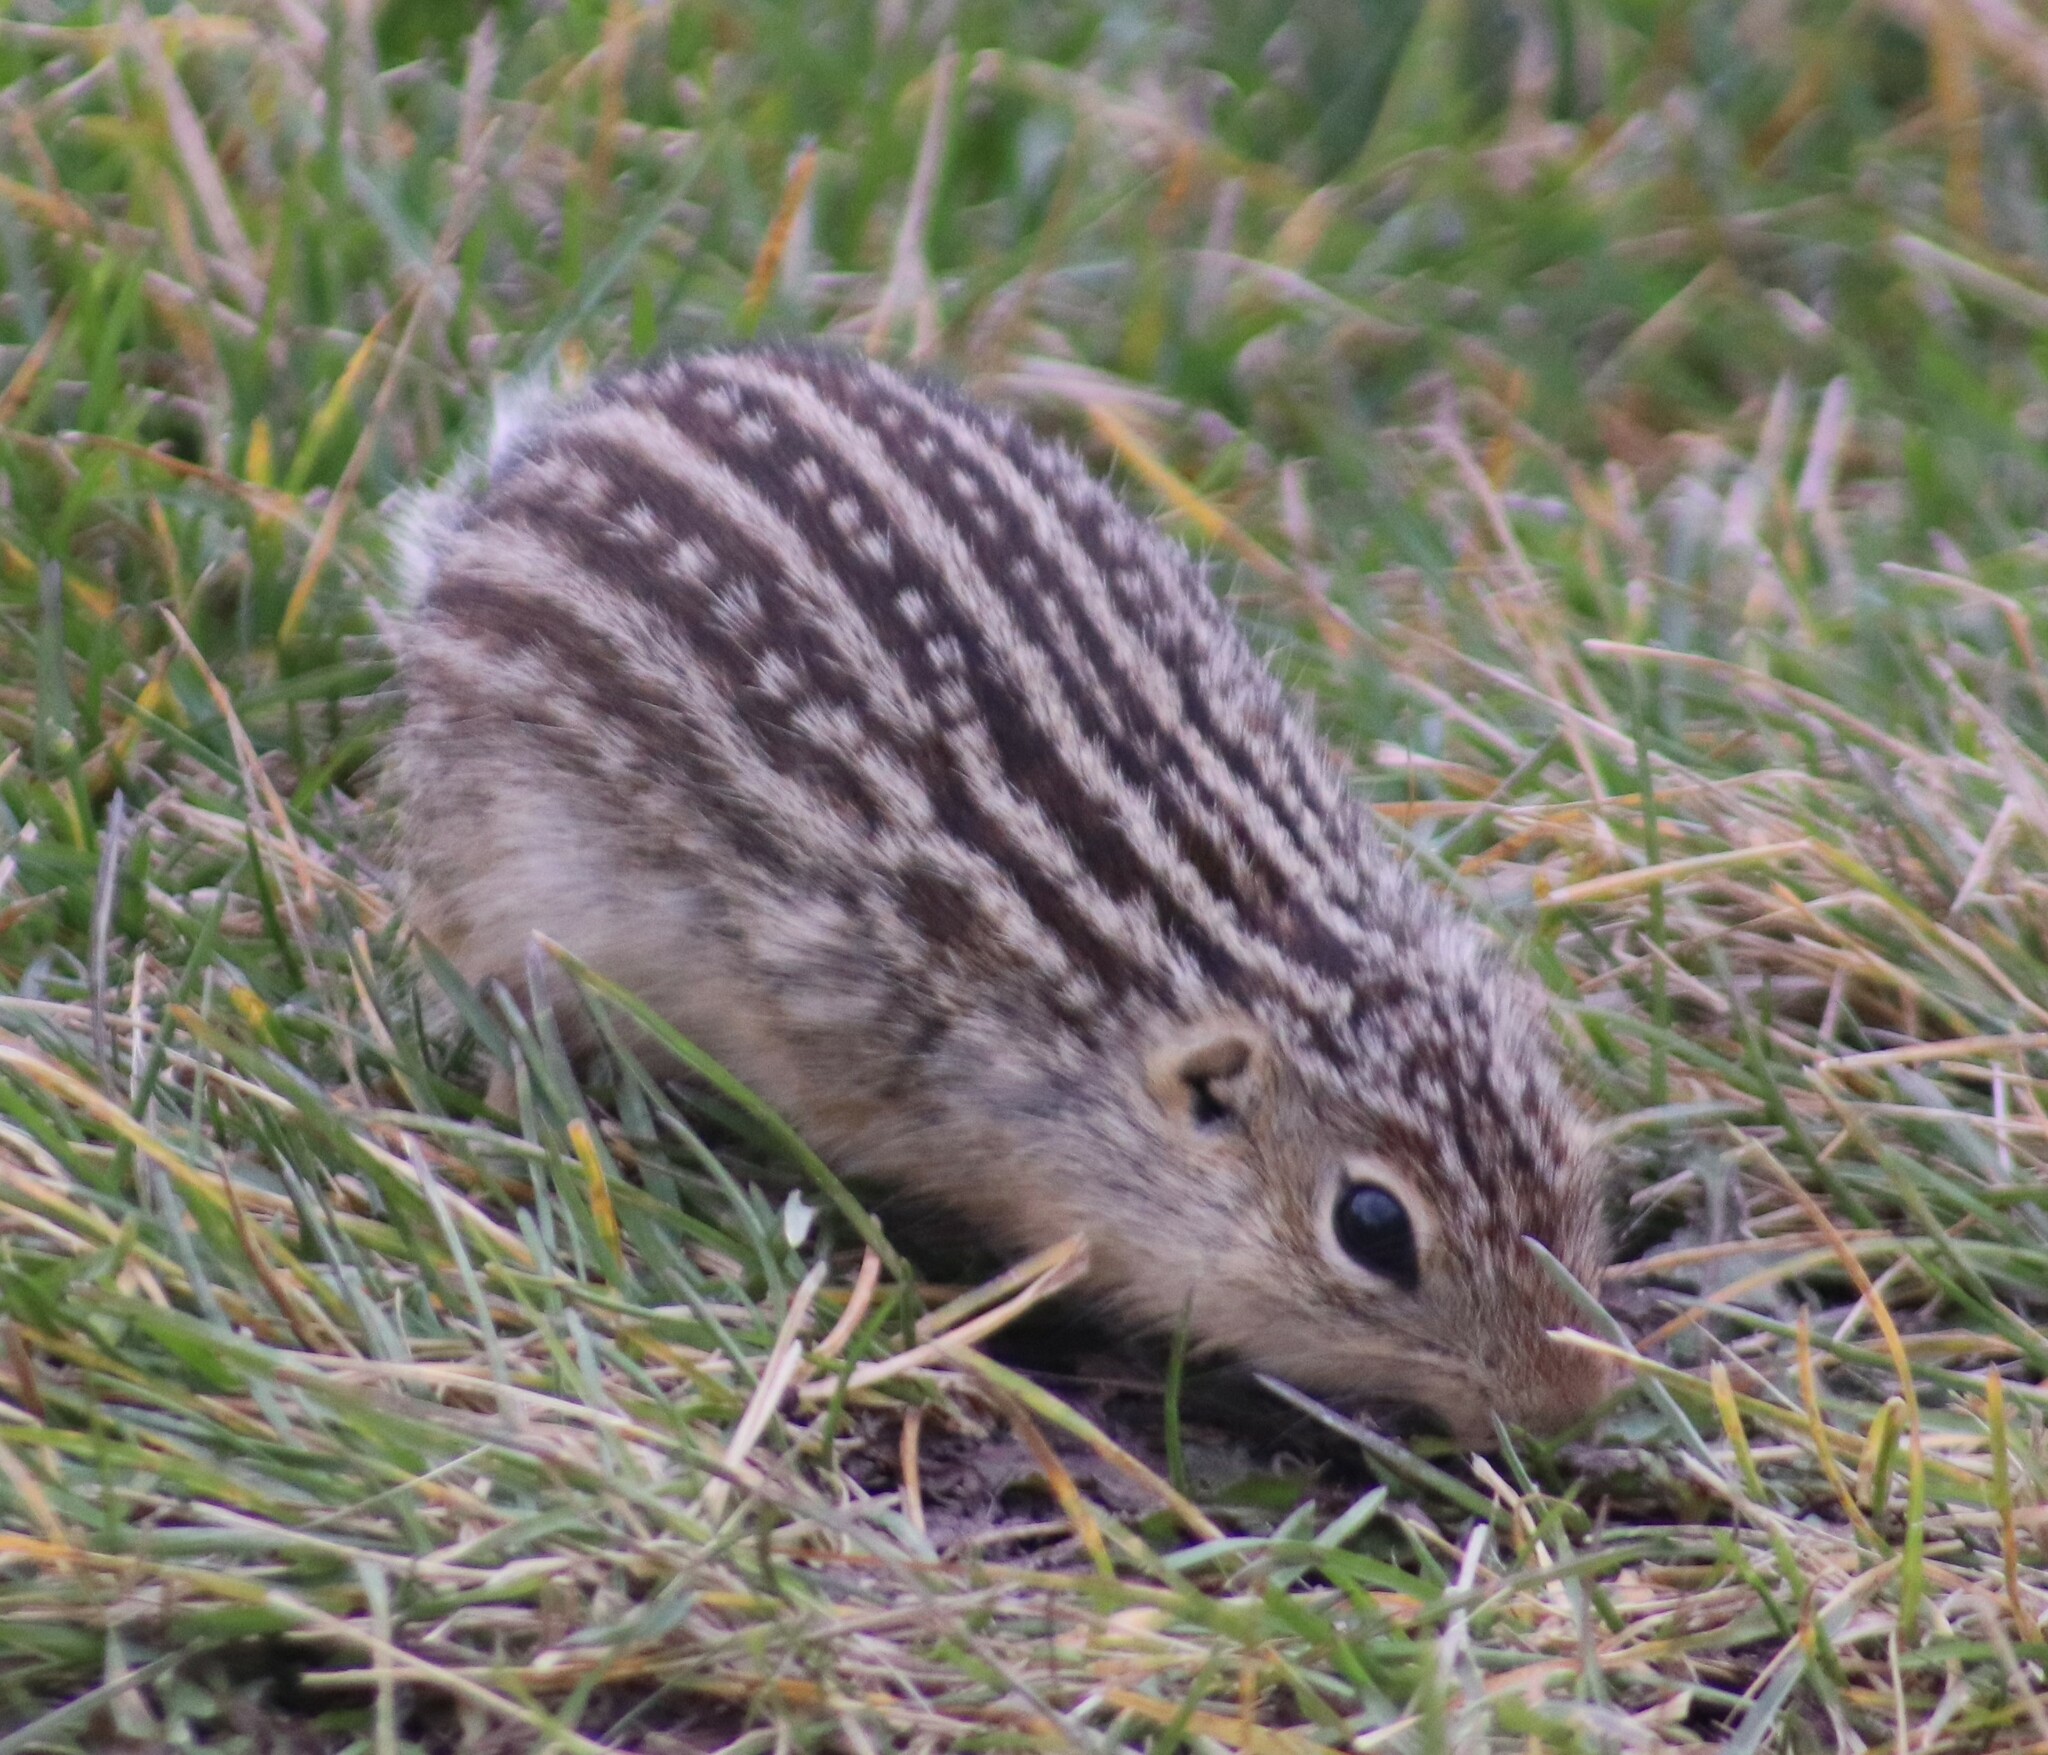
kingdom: Animalia
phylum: Chordata
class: Mammalia
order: Rodentia
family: Sciuridae
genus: Ictidomys
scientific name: Ictidomys tridecemlineatus
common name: Thirteen-lined ground squirrel
